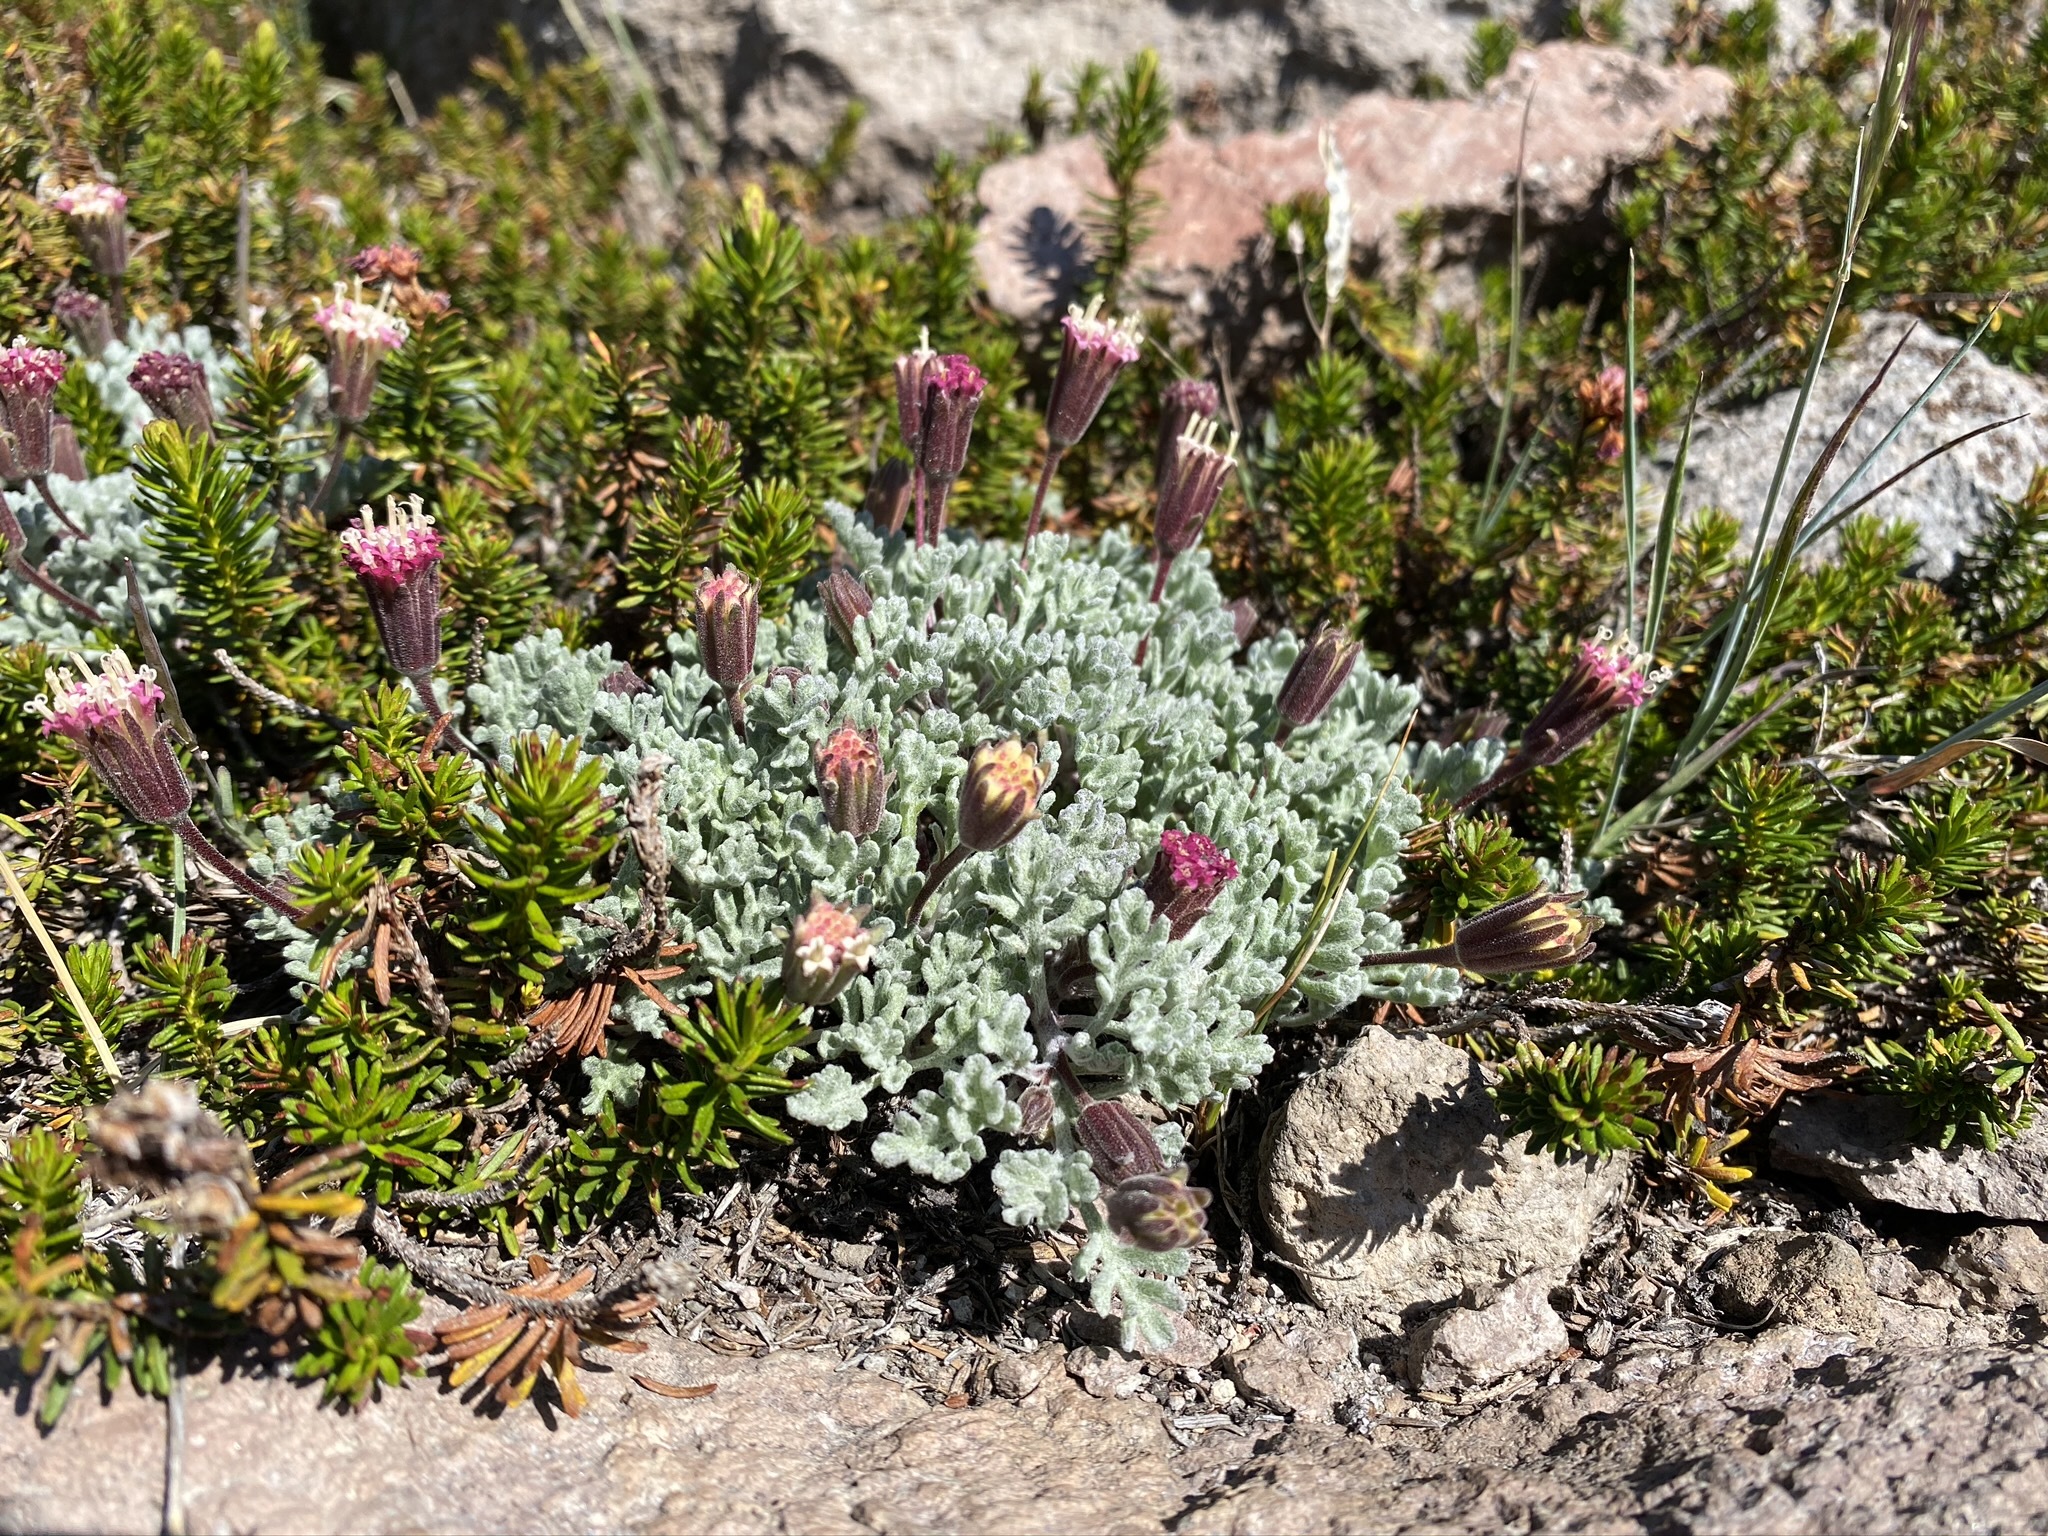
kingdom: Plantae
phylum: Tracheophyta
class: Magnoliopsida
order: Asterales
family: Asteraceae
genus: Chaenactis
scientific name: Chaenactis nevadensis
